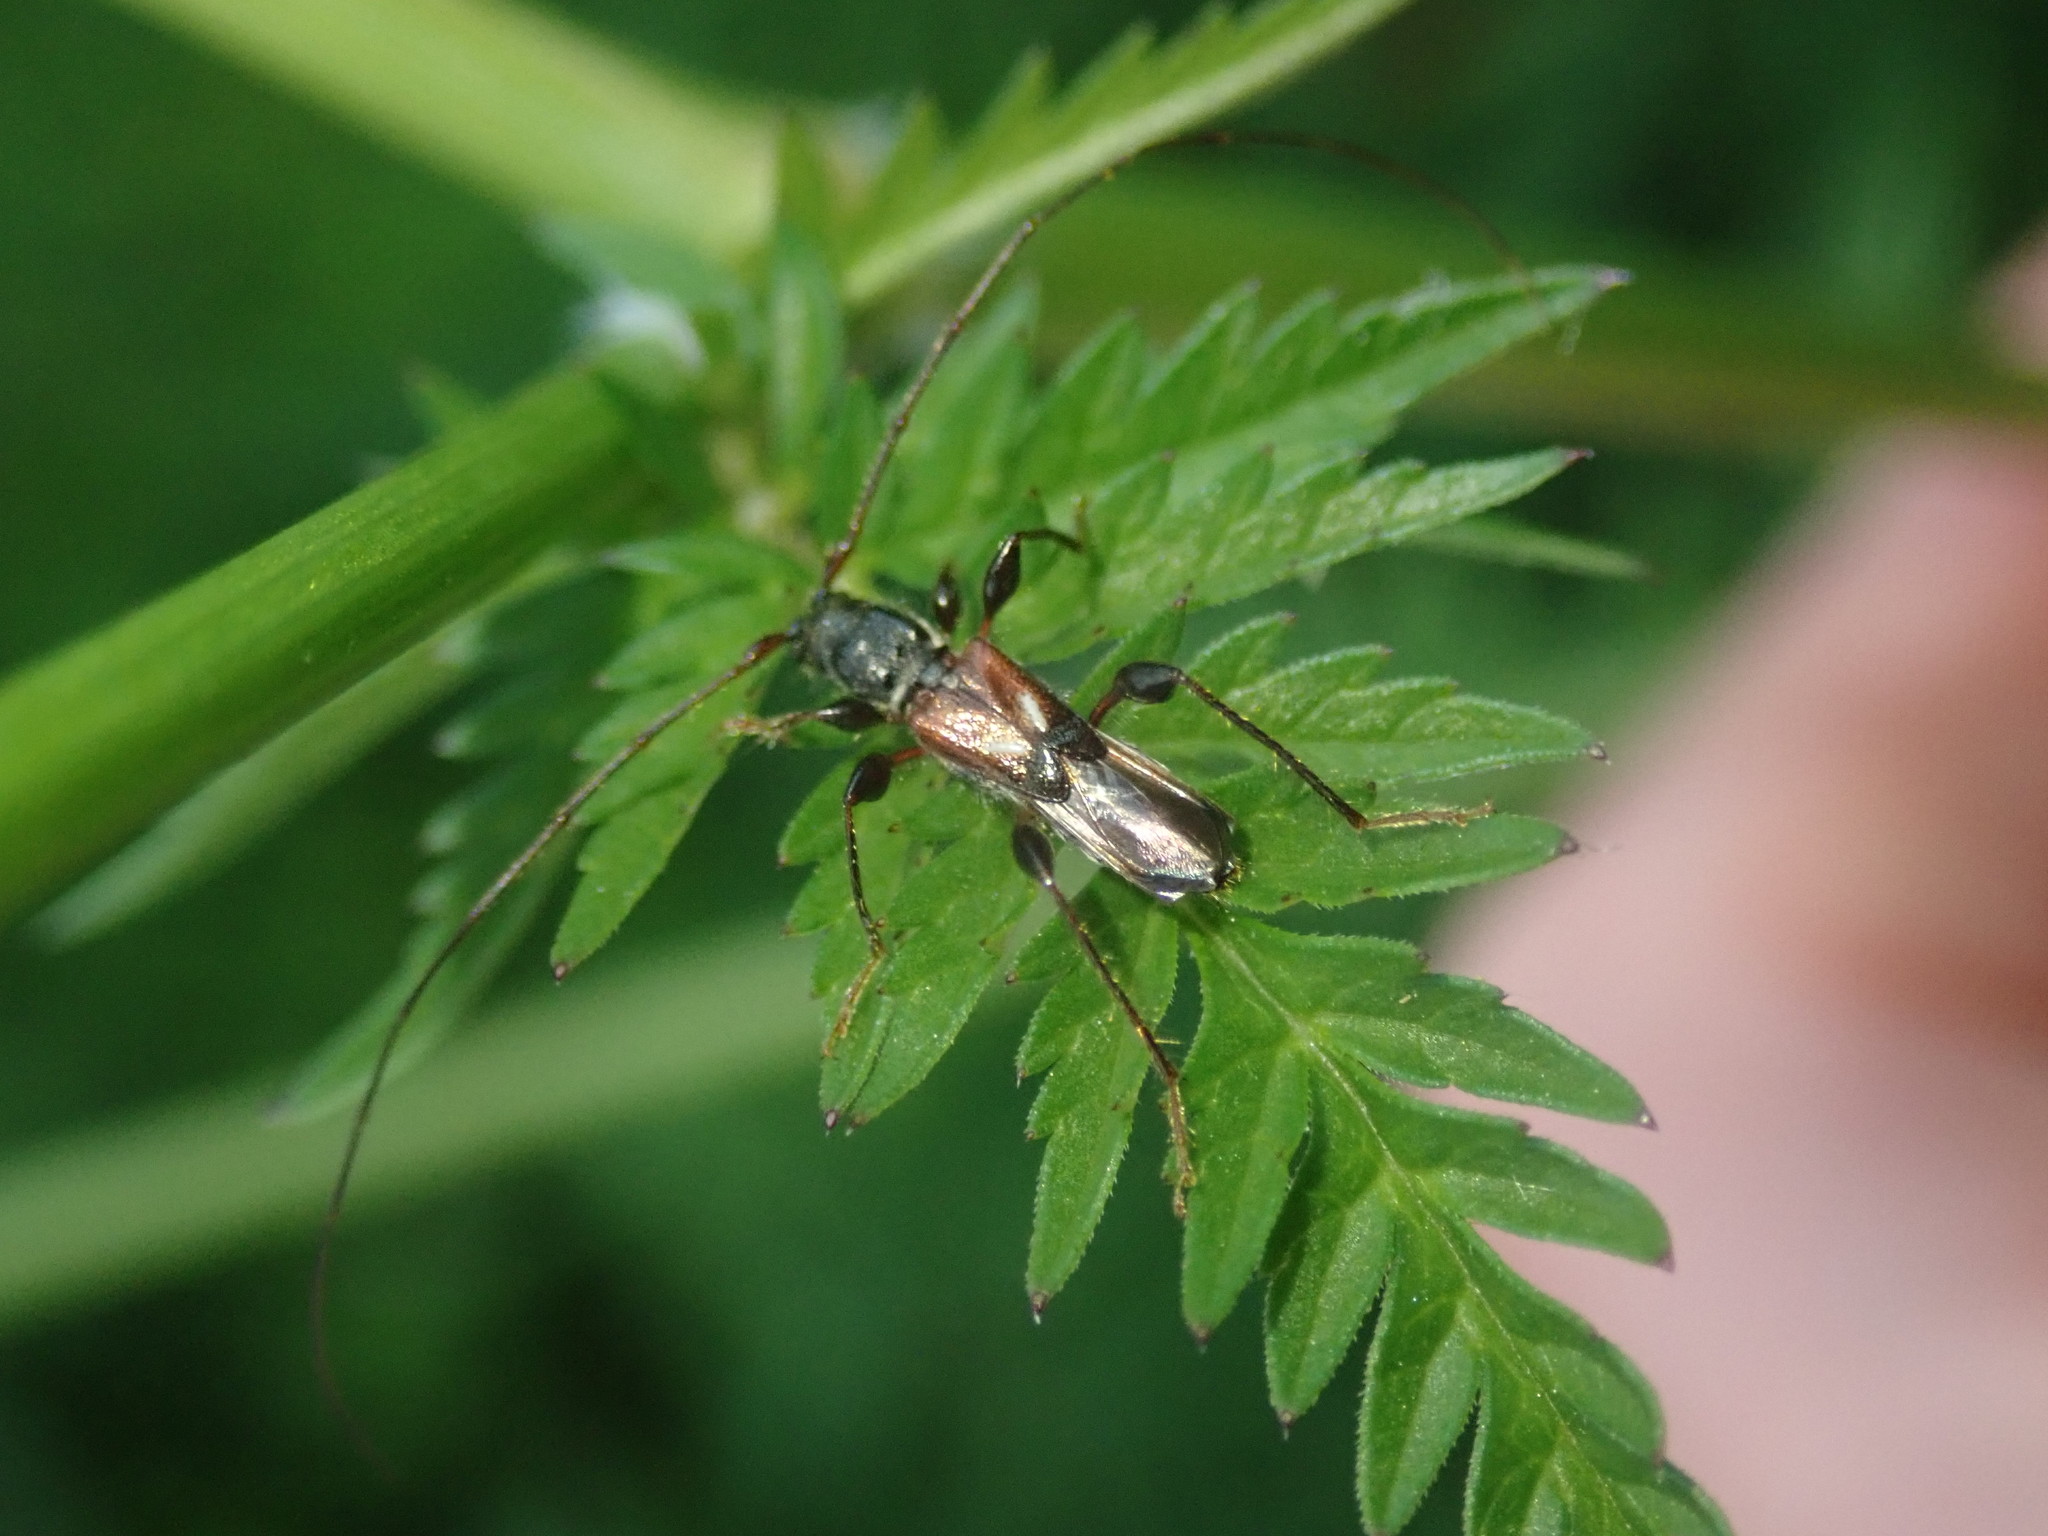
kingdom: Animalia
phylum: Arthropoda
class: Insecta
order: Coleoptera
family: Cerambycidae
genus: Molorchus
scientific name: Molorchus minor
